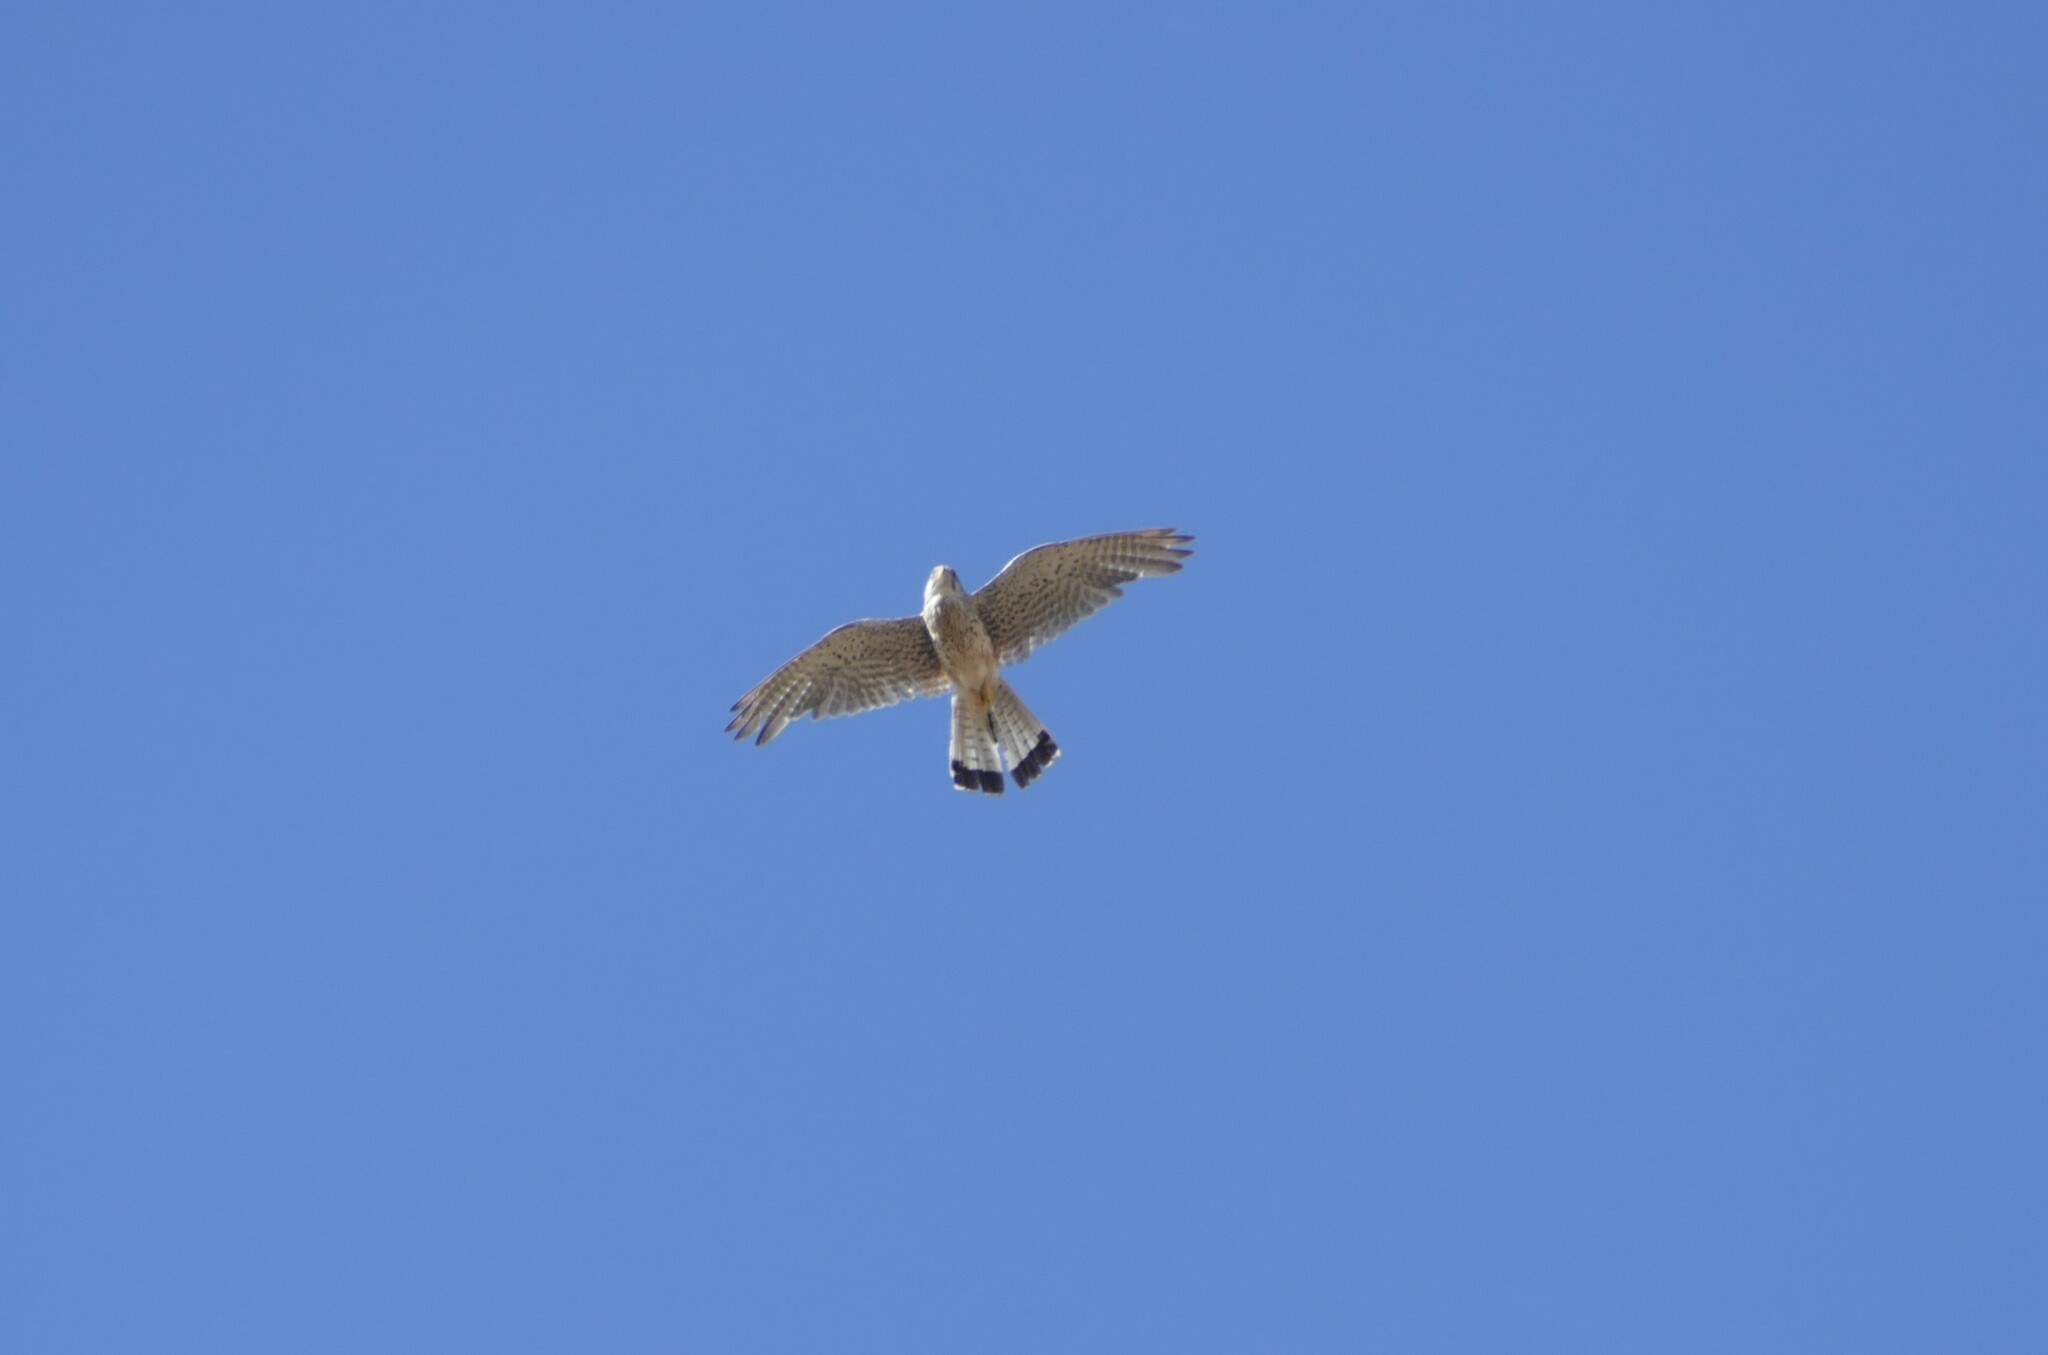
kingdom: Animalia
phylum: Chordata
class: Aves
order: Falconiformes
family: Falconidae
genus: Falco
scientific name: Falco tinnunculus
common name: Common kestrel
